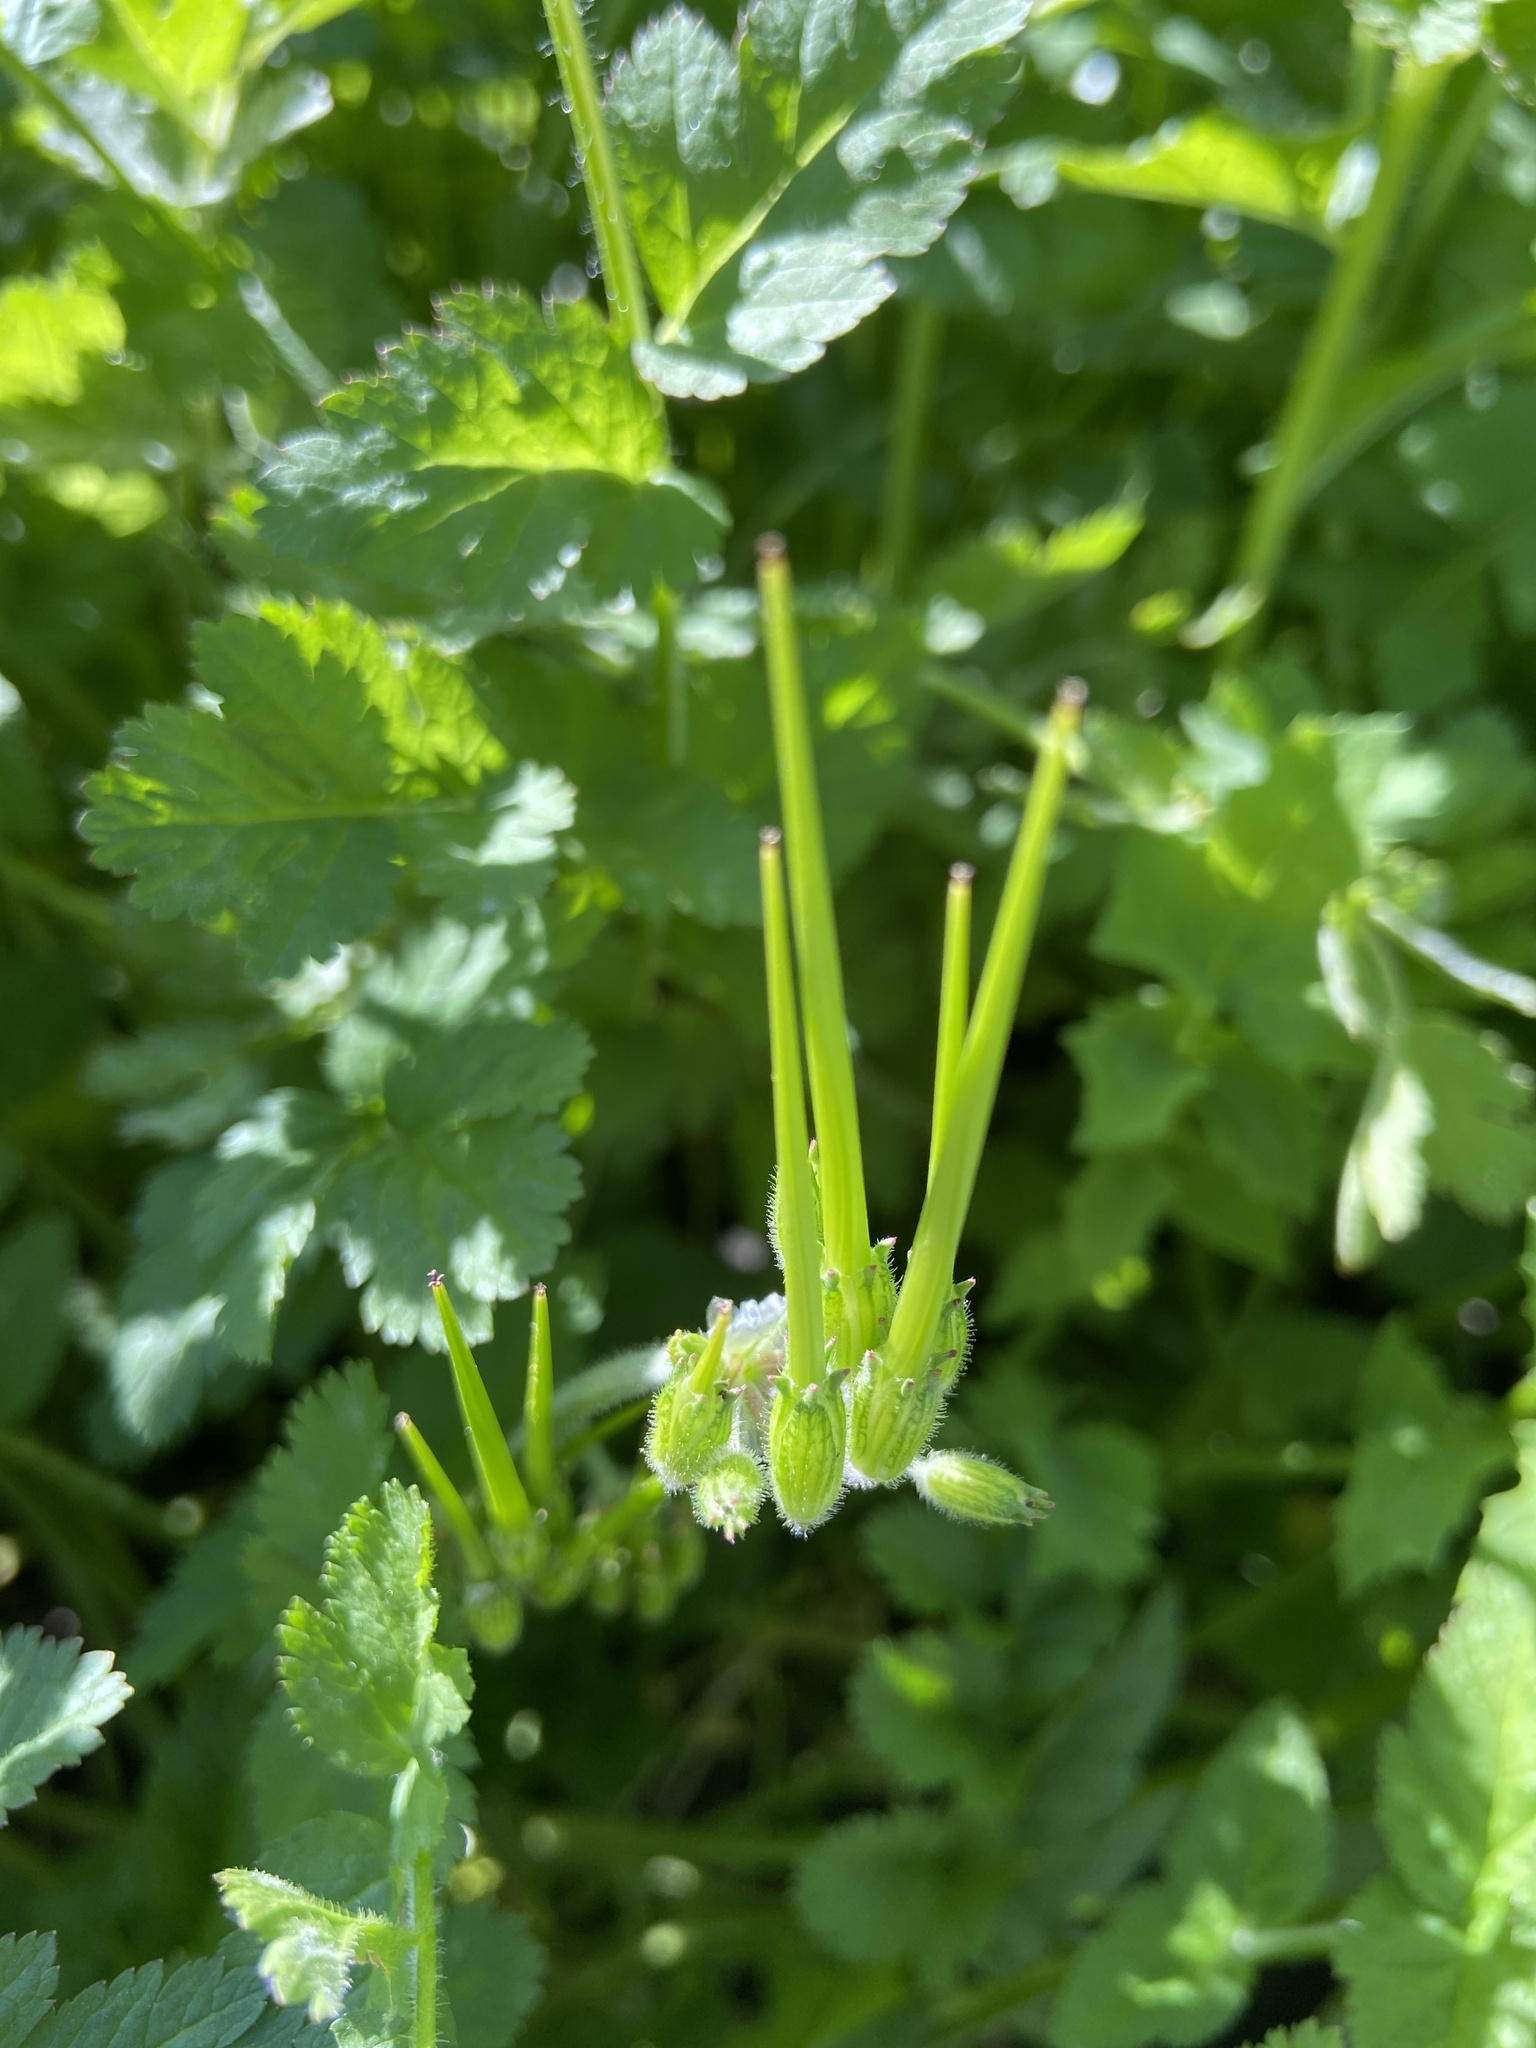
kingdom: Plantae
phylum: Tracheophyta
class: Magnoliopsida
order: Geraniales
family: Geraniaceae
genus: Erodium
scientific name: Erodium moschatum
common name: Musk stork's-bill
